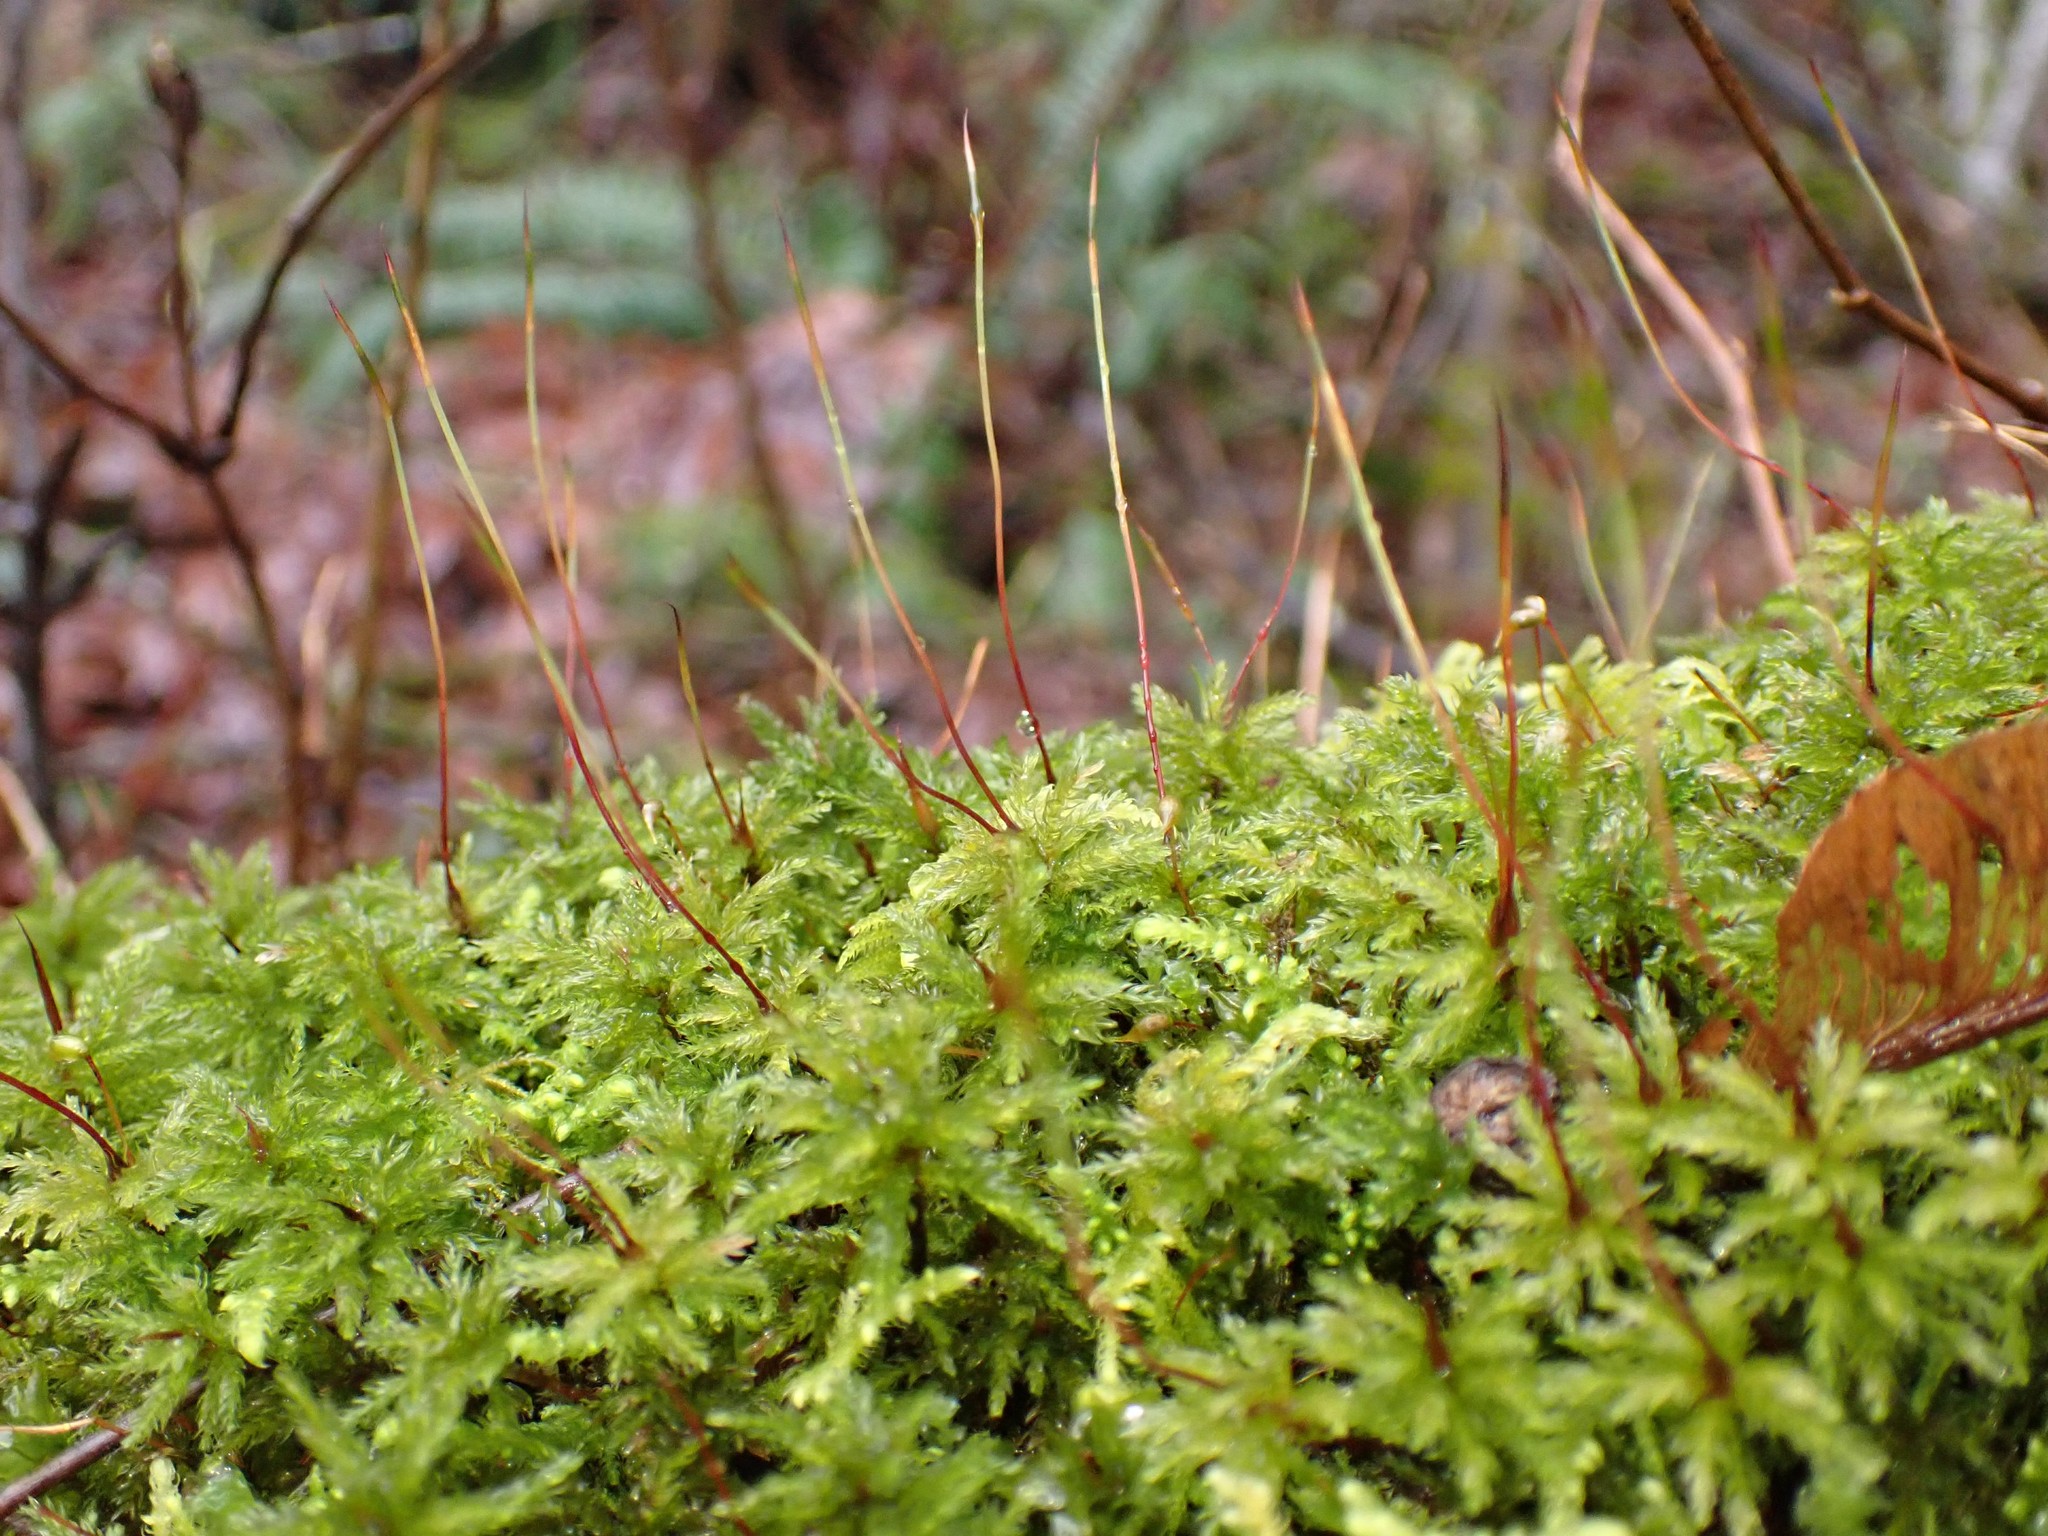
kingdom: Plantae
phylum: Bryophyta
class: Bryopsida
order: Bryales
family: Mniaceae
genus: Leucolepis
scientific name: Leucolepis acanthoneura
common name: Leucolepis umbrella moss
